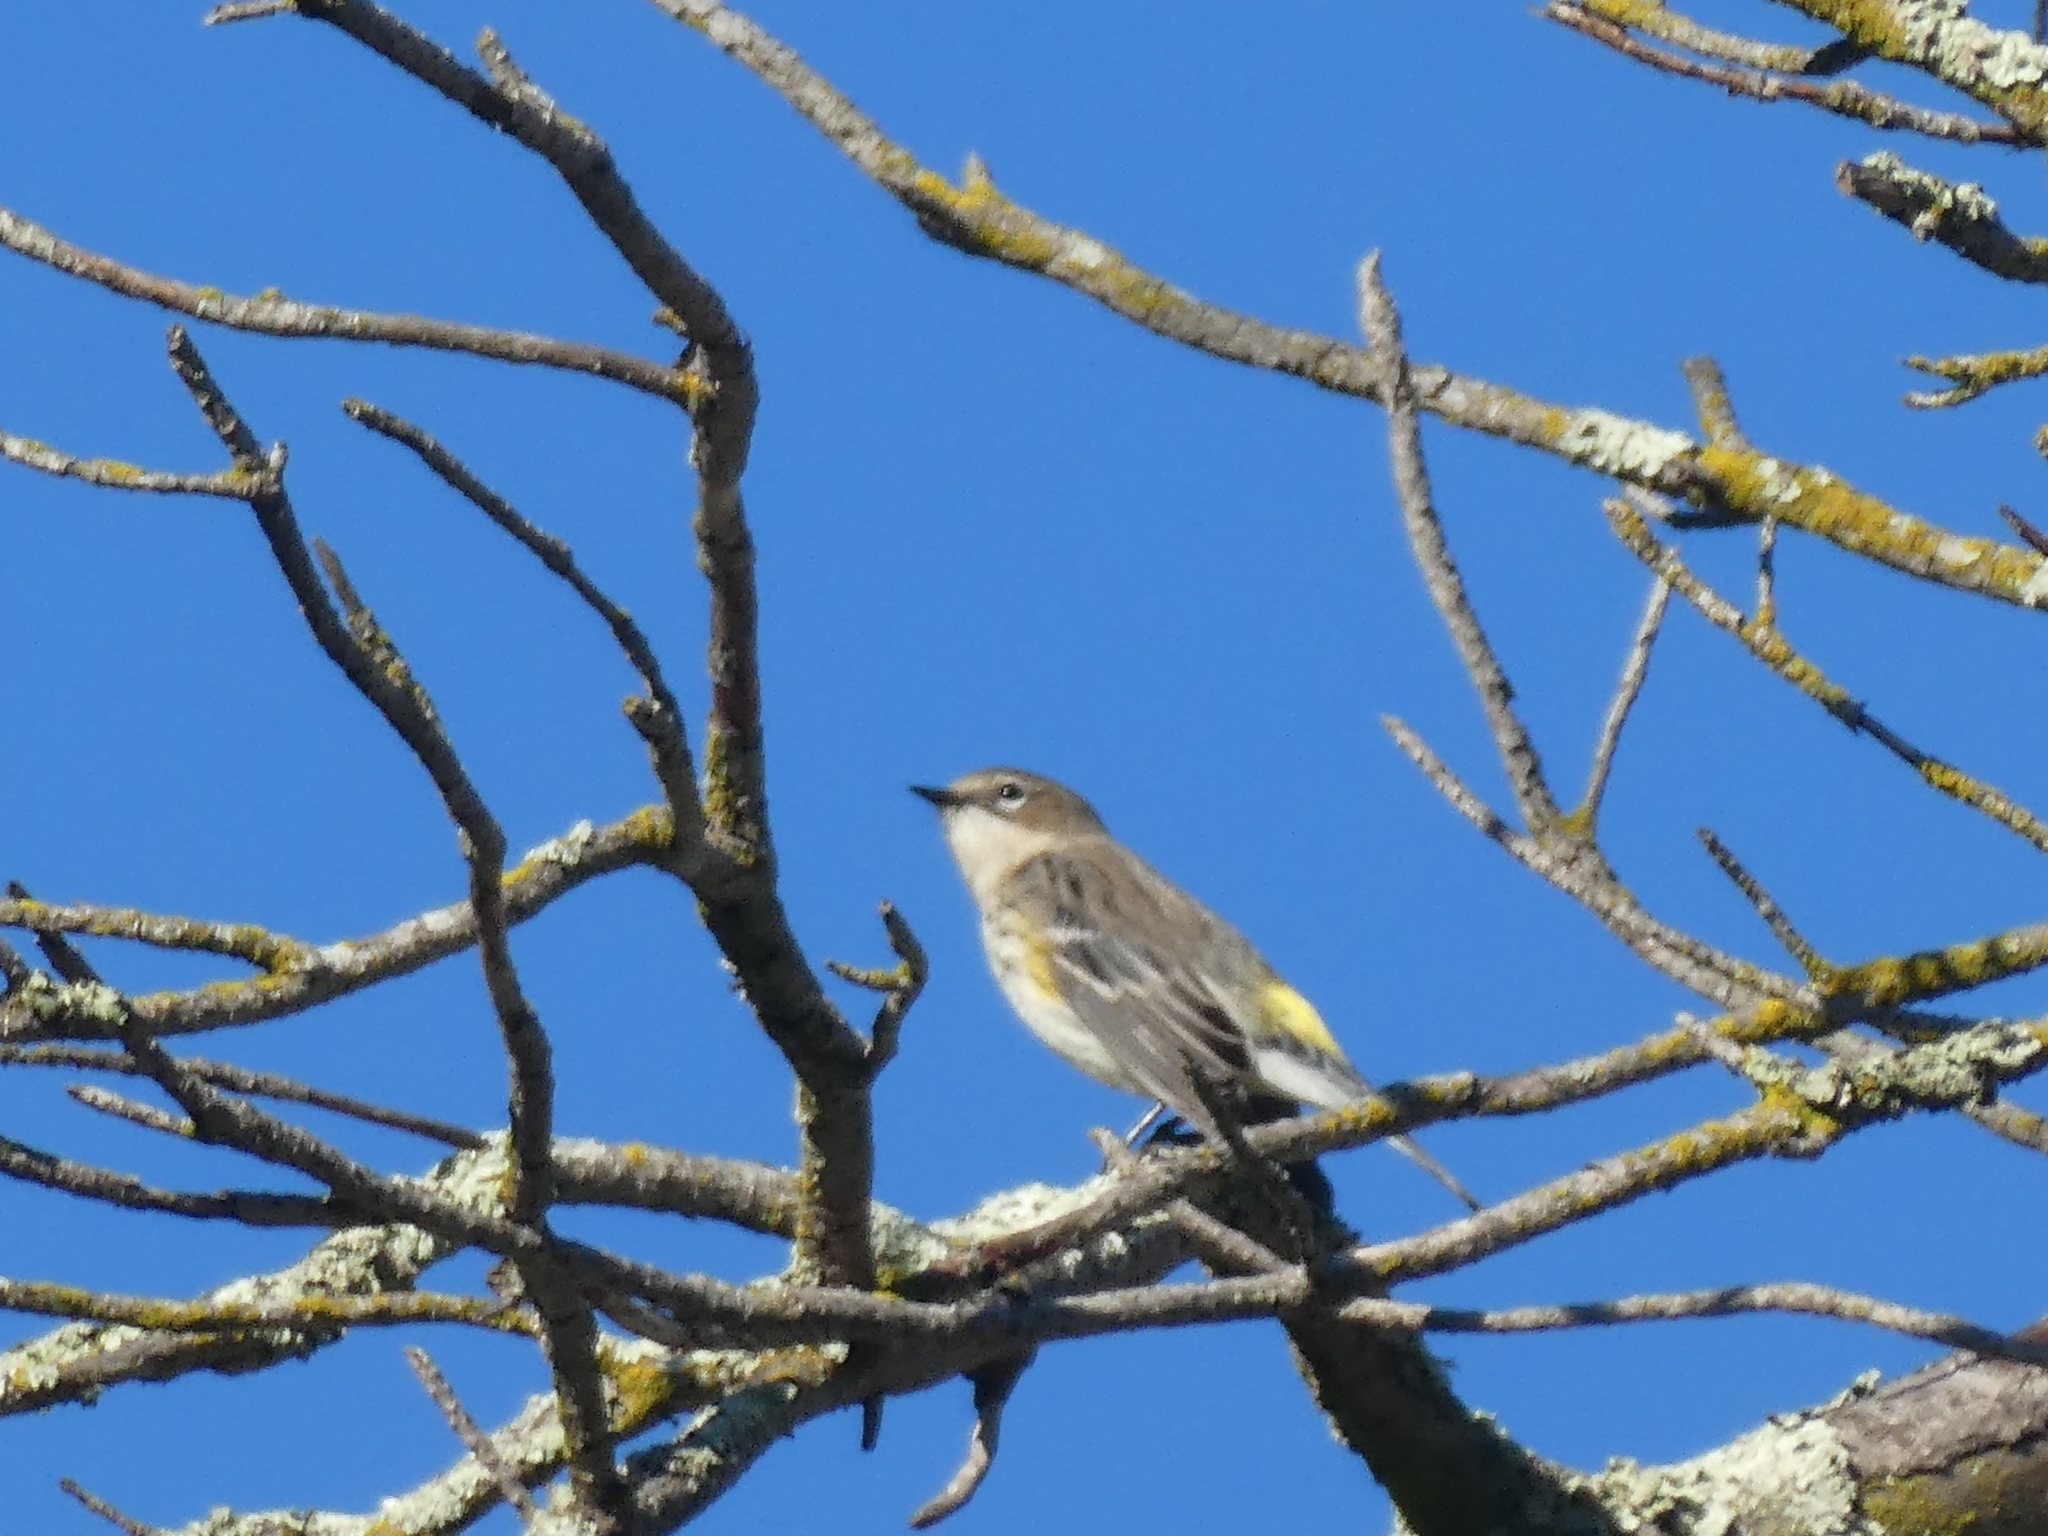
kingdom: Animalia
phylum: Chordata
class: Aves
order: Passeriformes
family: Parulidae
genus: Setophaga
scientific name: Setophaga coronata
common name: Myrtle warbler
